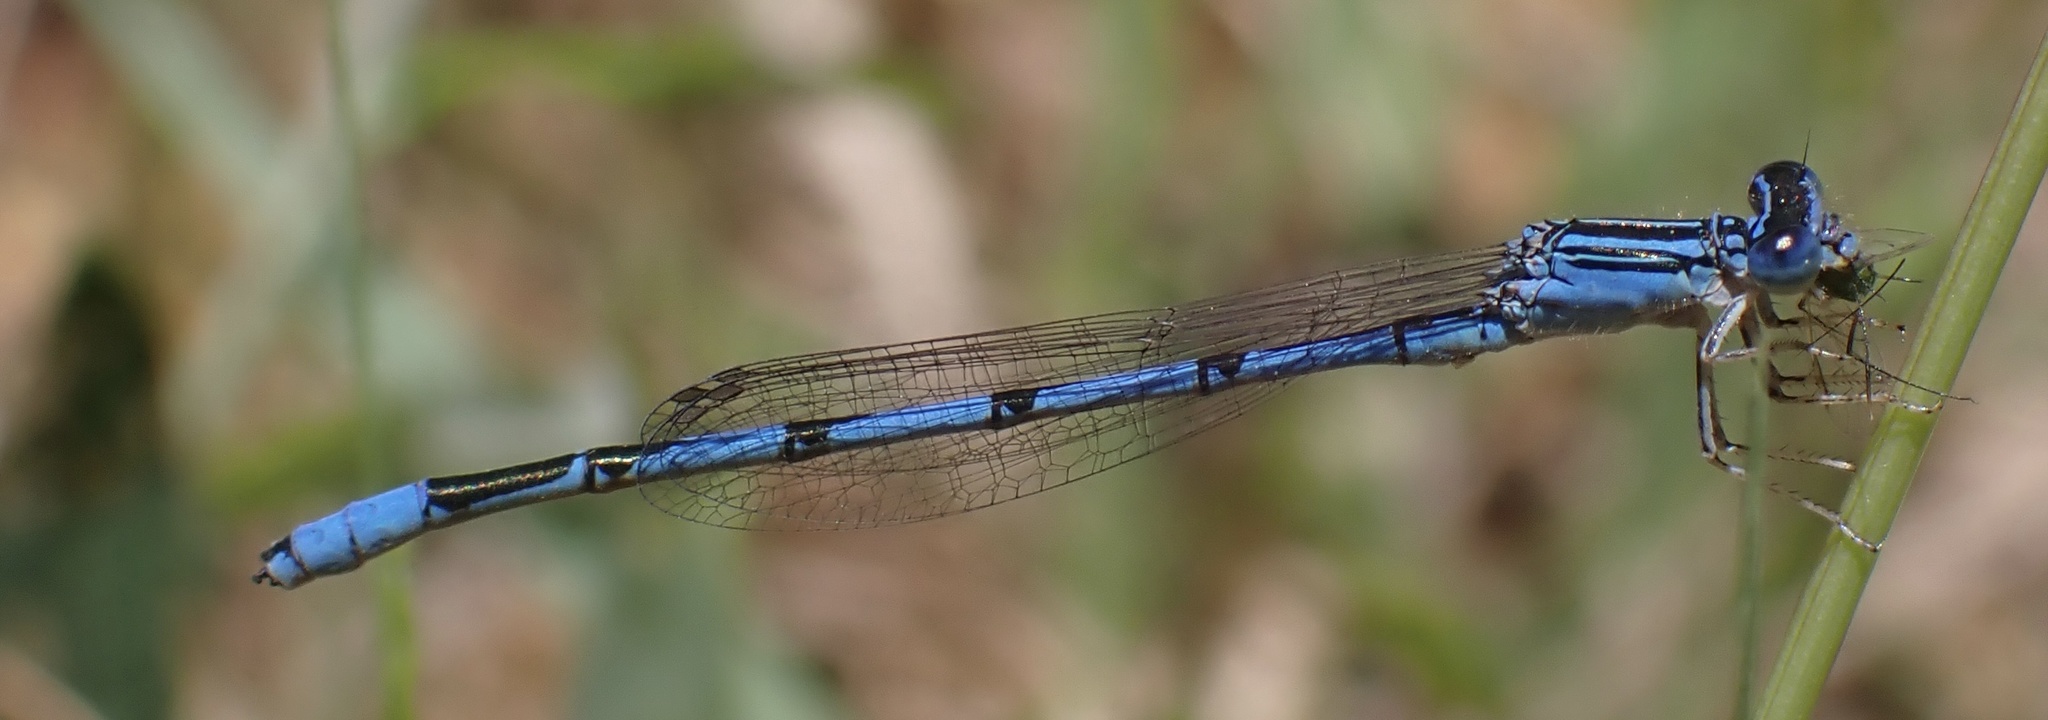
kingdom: Animalia
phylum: Arthropoda
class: Insecta
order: Odonata
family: Coenagrionidae
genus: Enallagma
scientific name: Enallagma basidens
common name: Double-striped bluet
